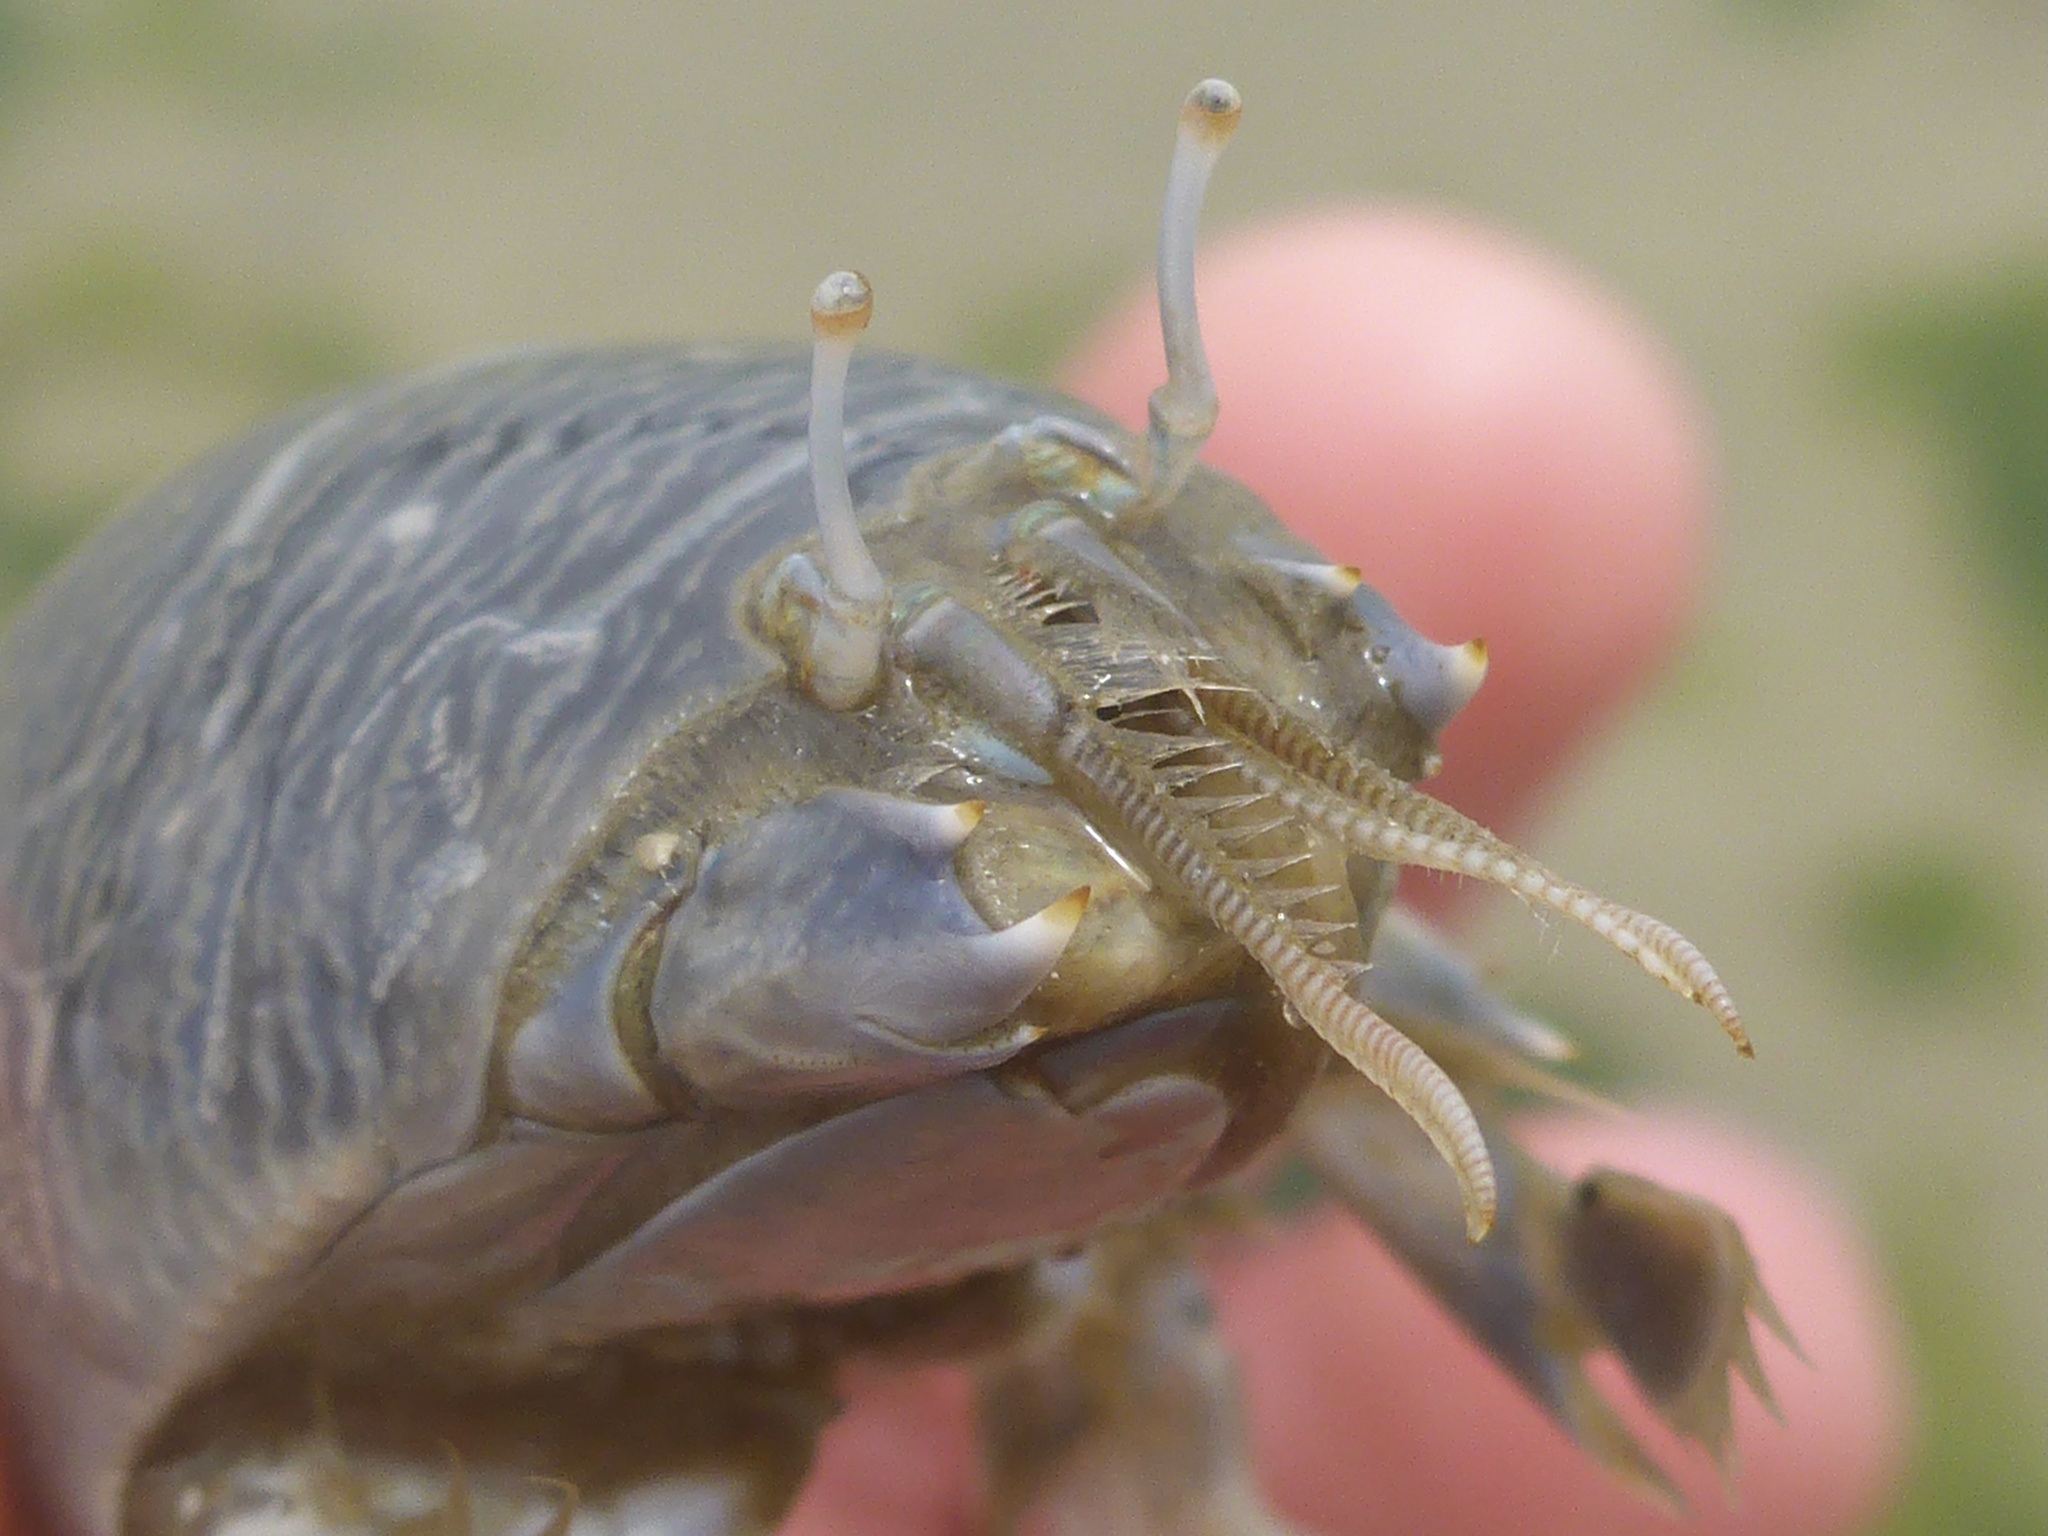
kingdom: Animalia
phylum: Arthropoda
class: Malacostraca
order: Decapoda
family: Hippidae
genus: Emerita
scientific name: Emerita analoga
